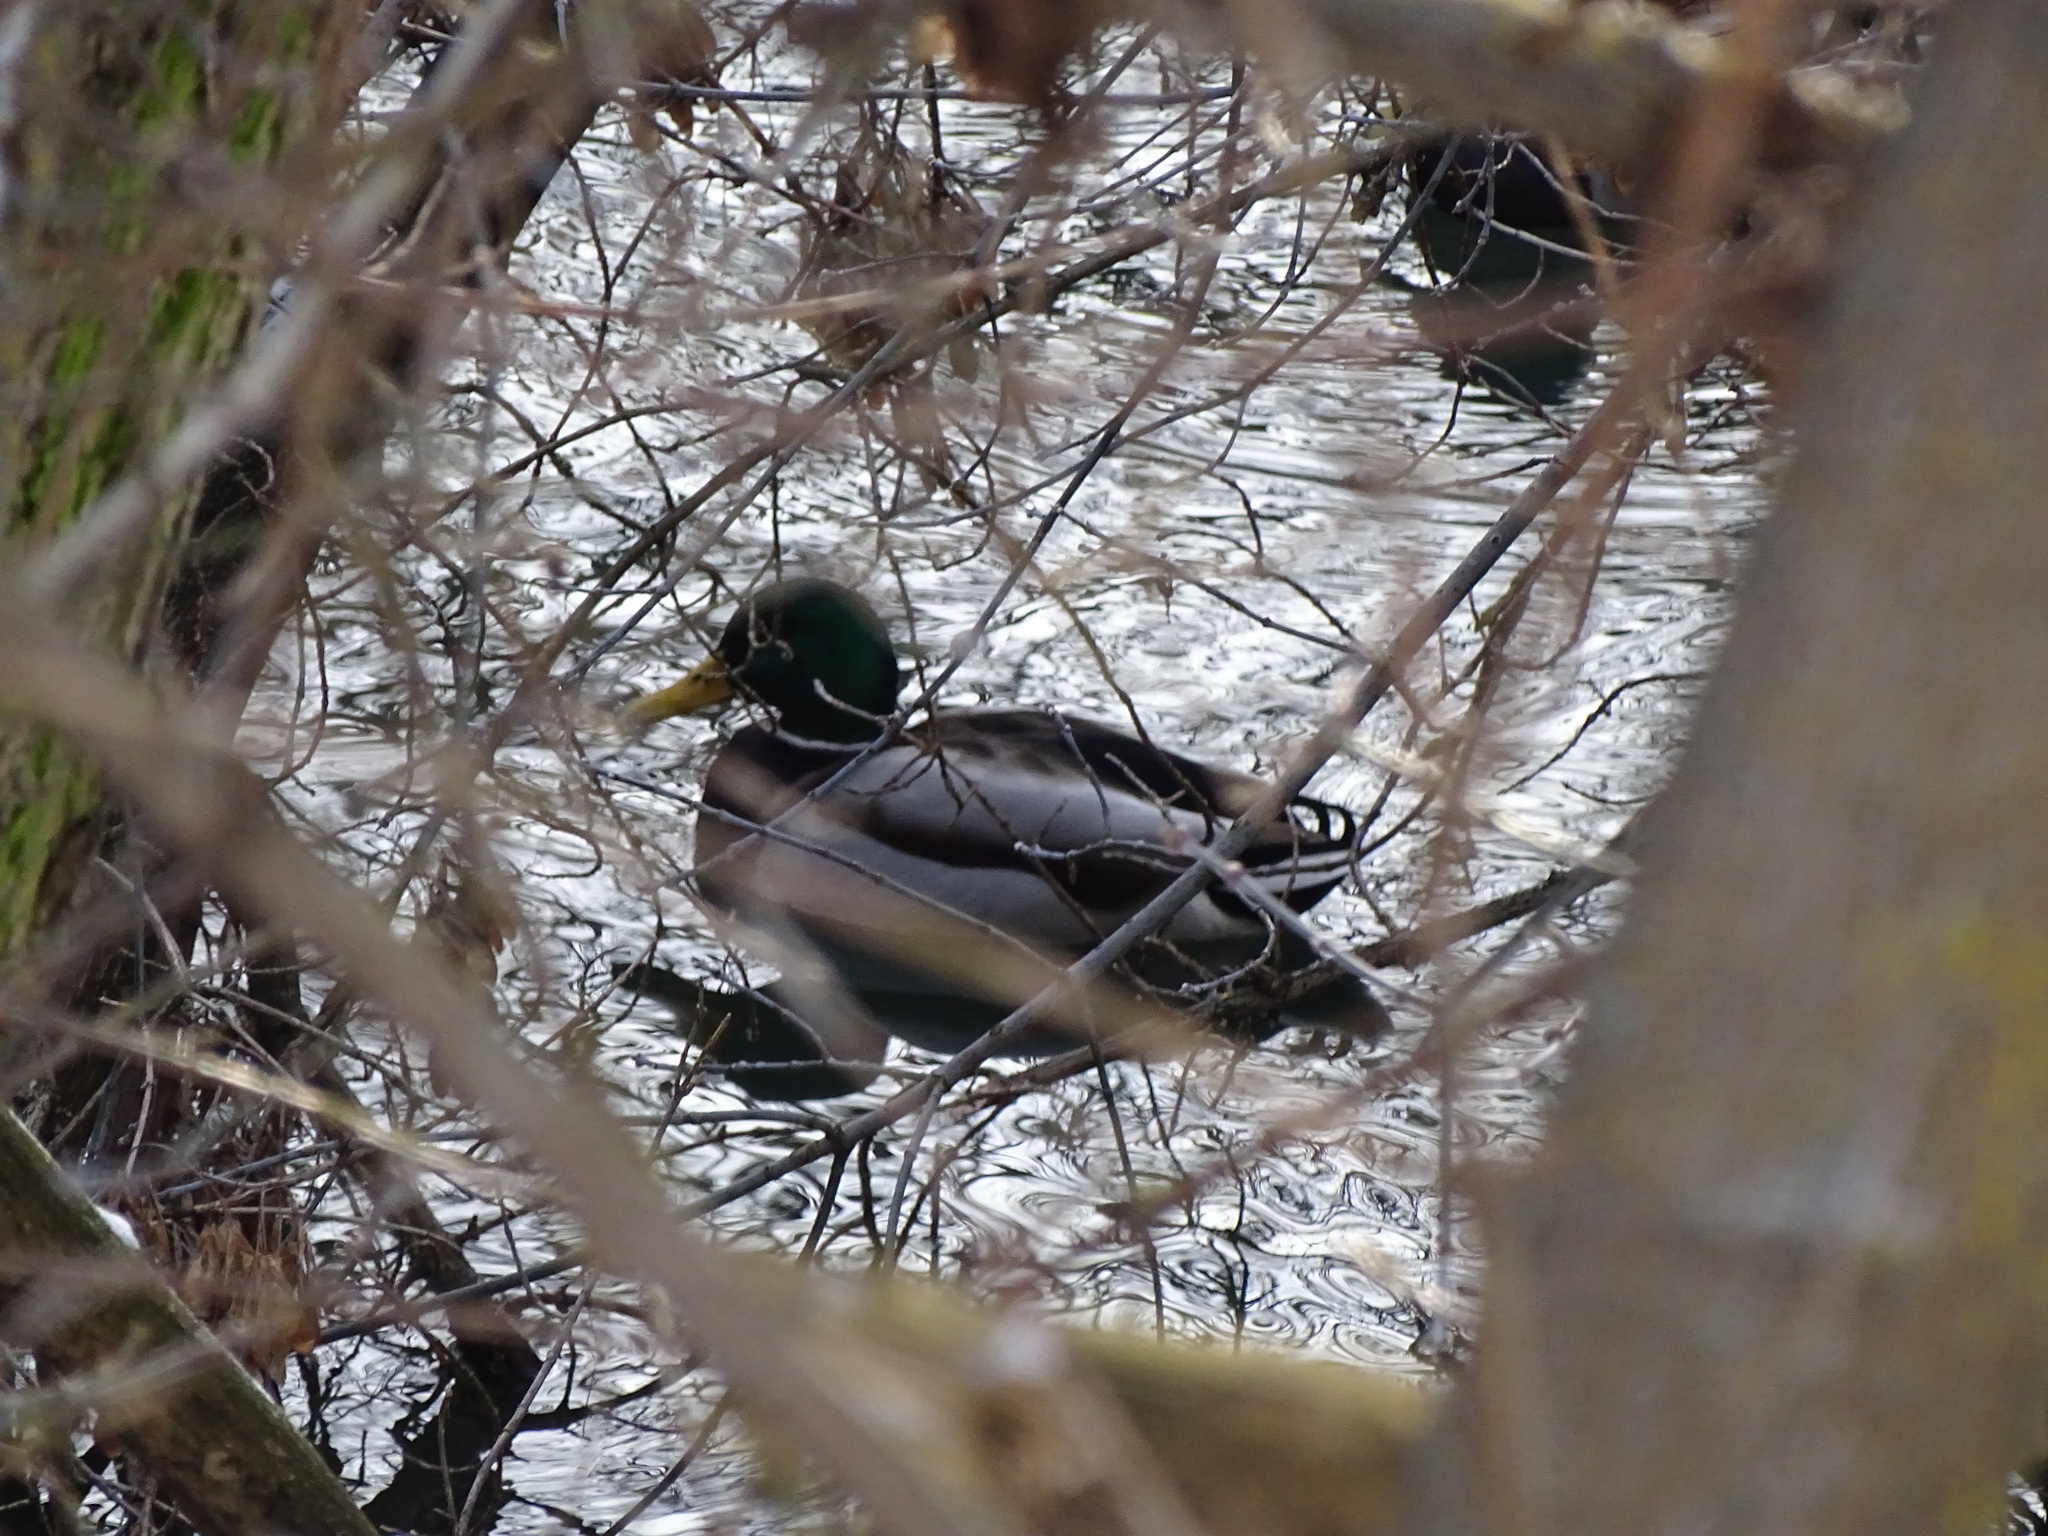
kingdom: Animalia
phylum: Chordata
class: Aves
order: Anseriformes
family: Anatidae
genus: Anas
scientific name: Anas platyrhynchos
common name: Mallard
